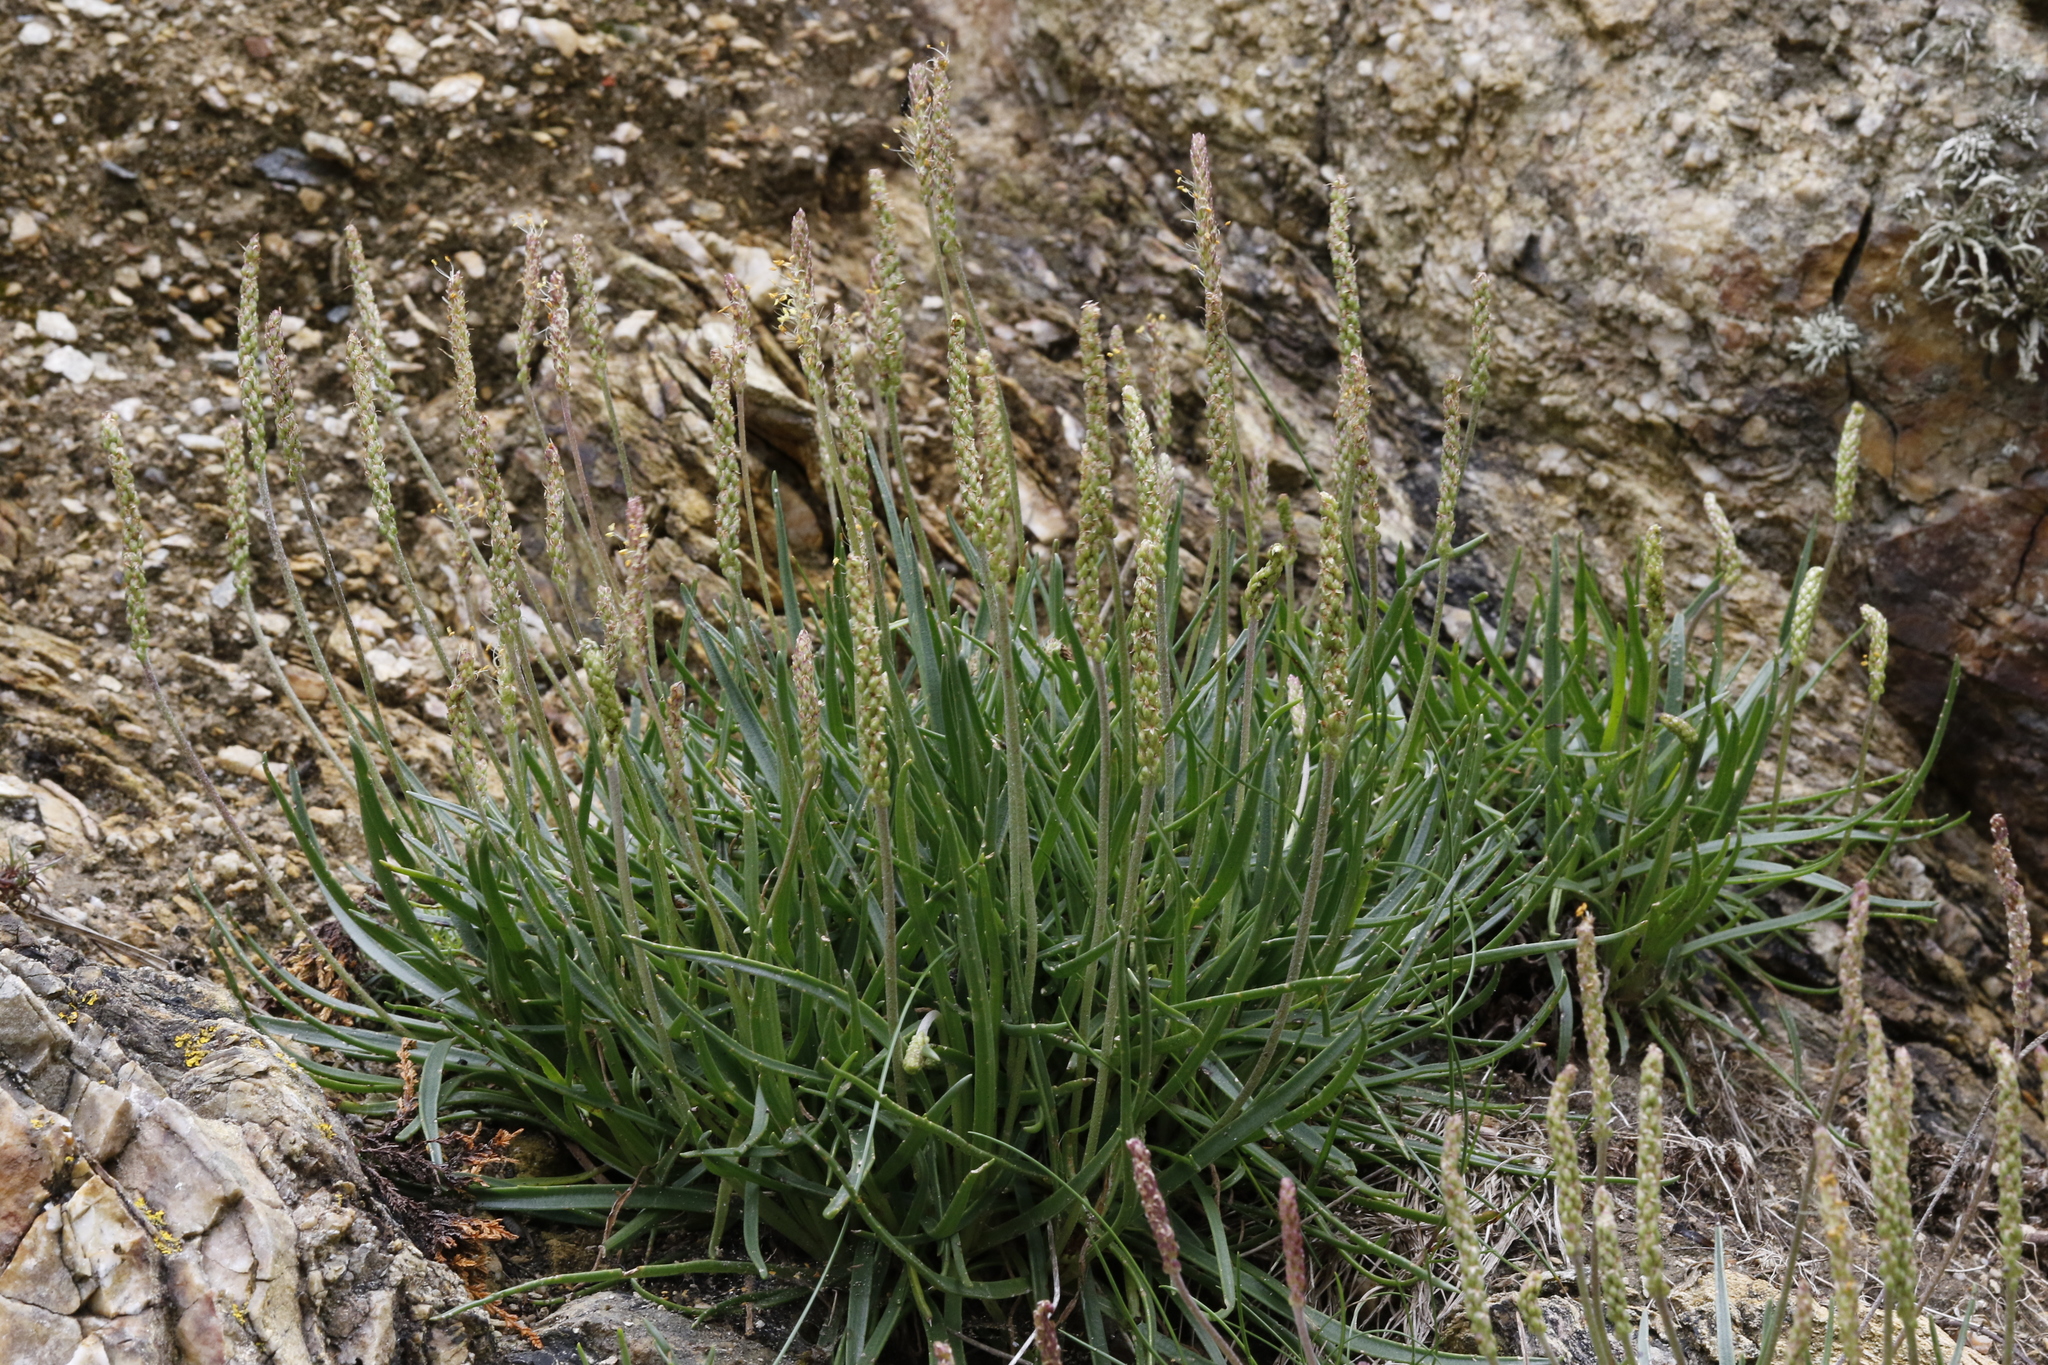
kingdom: Plantae
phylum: Tracheophyta
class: Magnoliopsida
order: Lamiales
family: Plantaginaceae
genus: Plantago
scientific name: Plantago maritima
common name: Sea plantain
